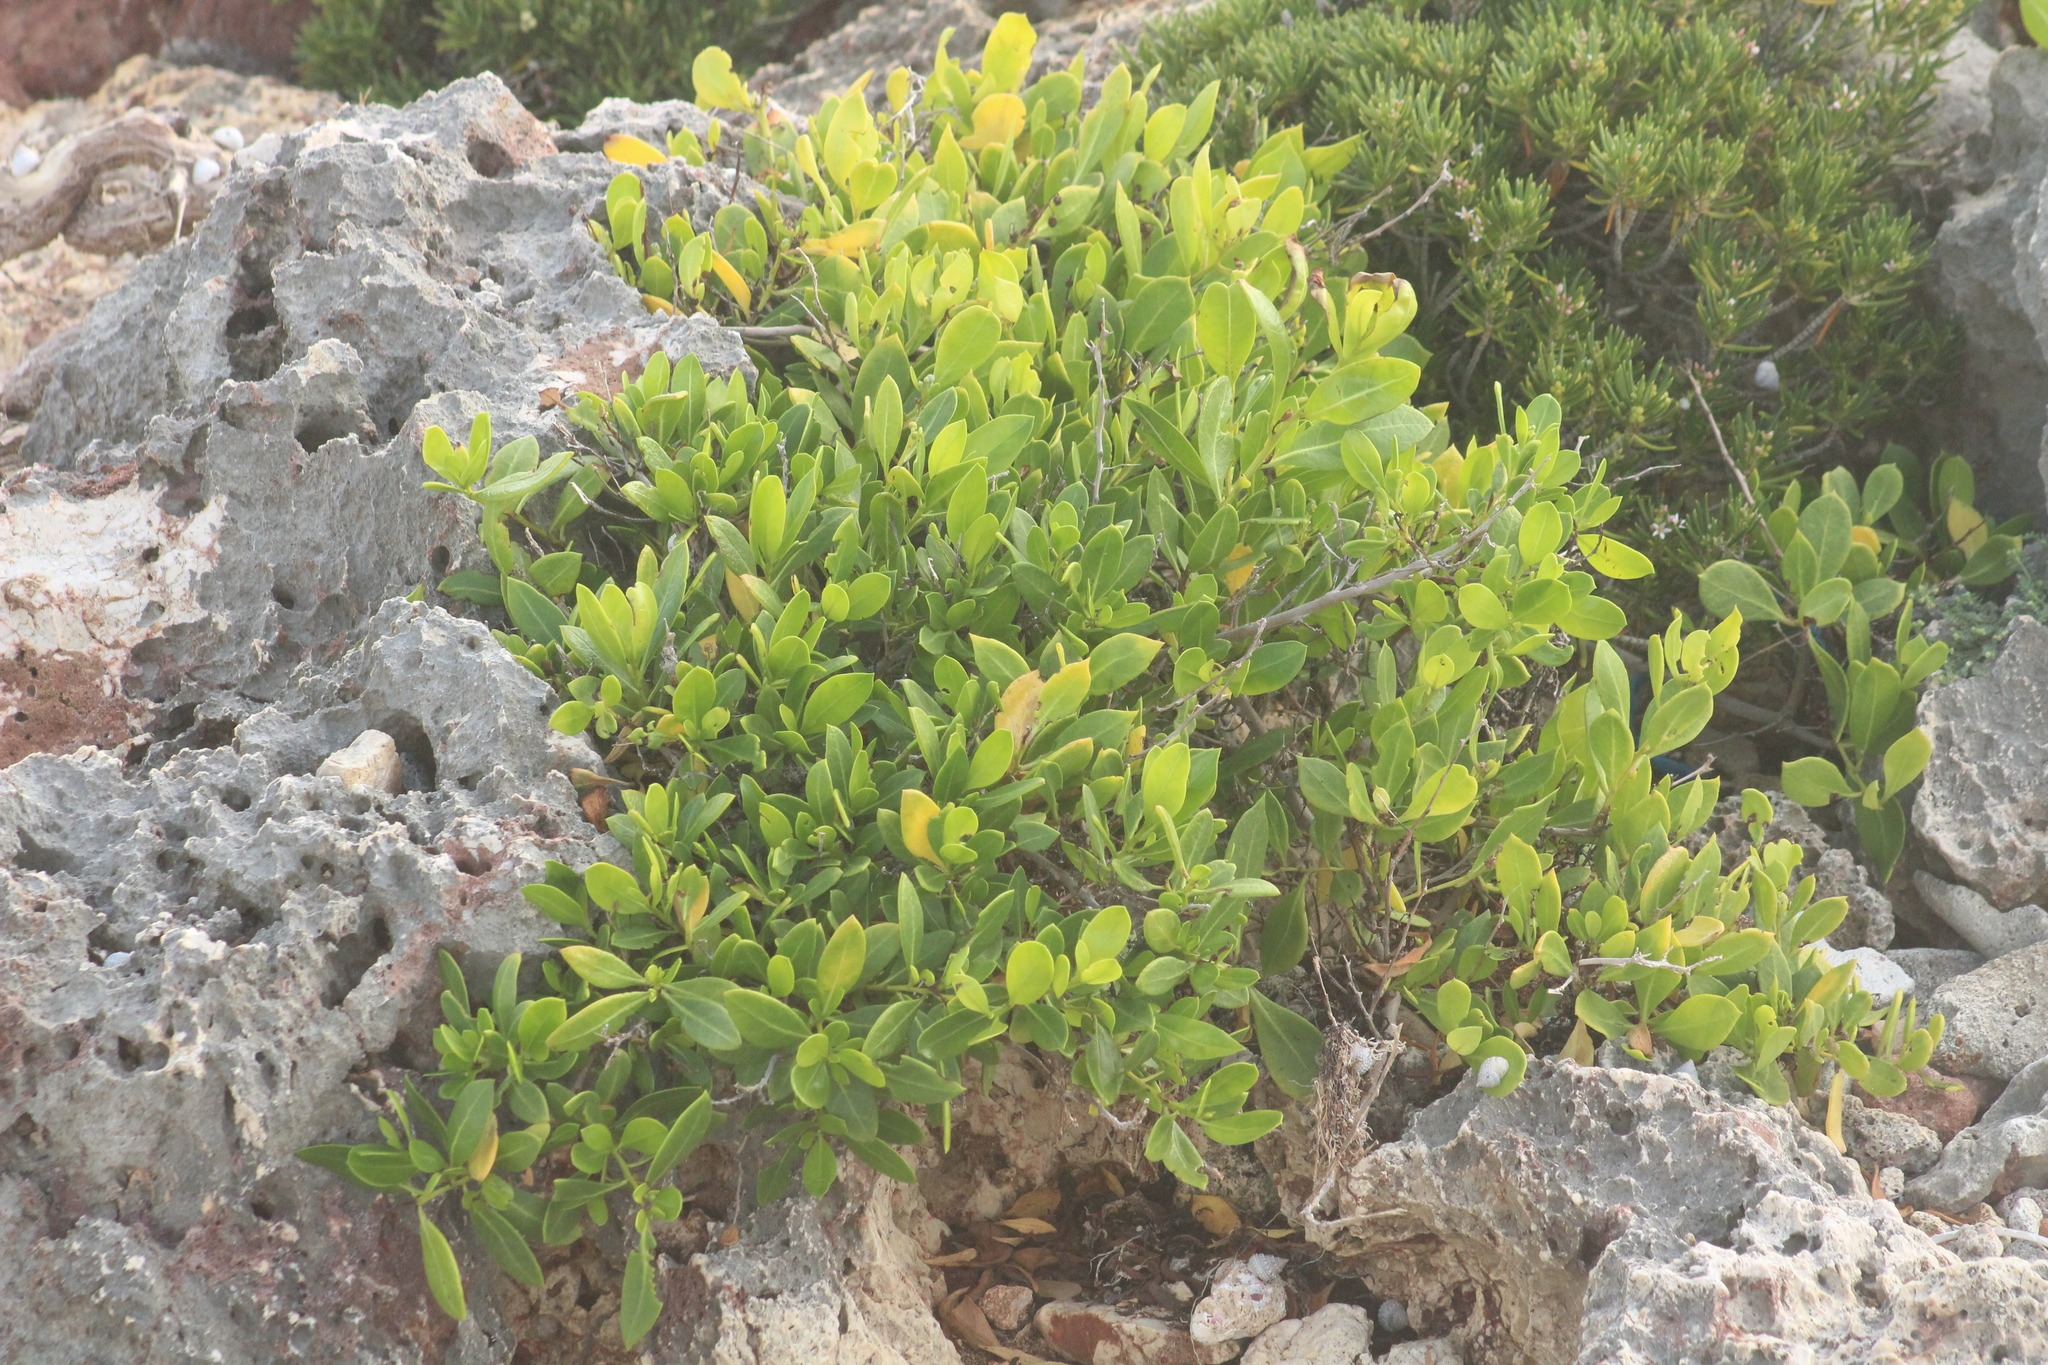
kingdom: Plantae
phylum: Tracheophyta
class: Magnoliopsida
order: Myrtales
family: Combretaceae
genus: Conocarpus
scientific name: Conocarpus erectus
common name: Button mangrove
